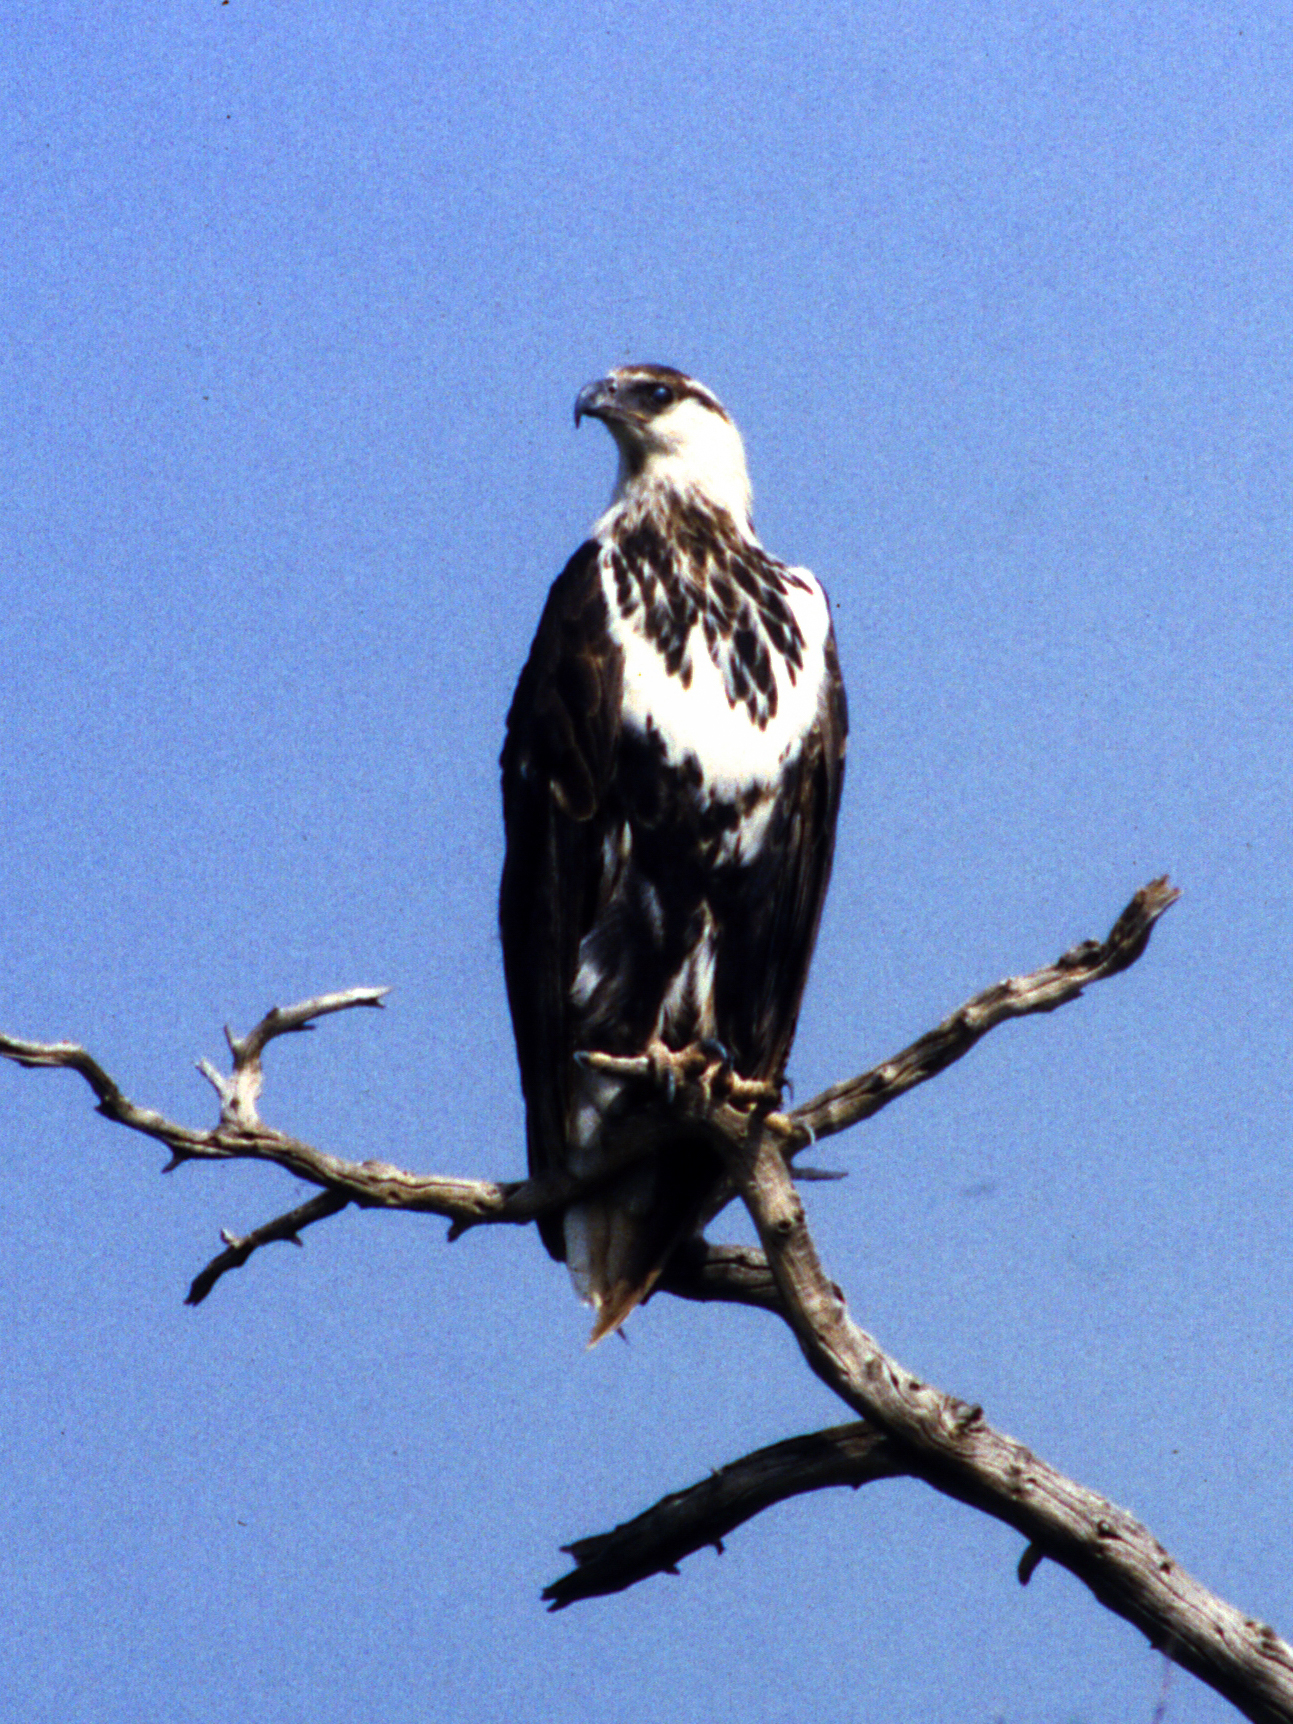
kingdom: Animalia
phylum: Chordata
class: Aves
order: Accipitriformes
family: Accipitridae
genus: Haliaeetus
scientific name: Haliaeetus vocifer
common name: African fish eagle
